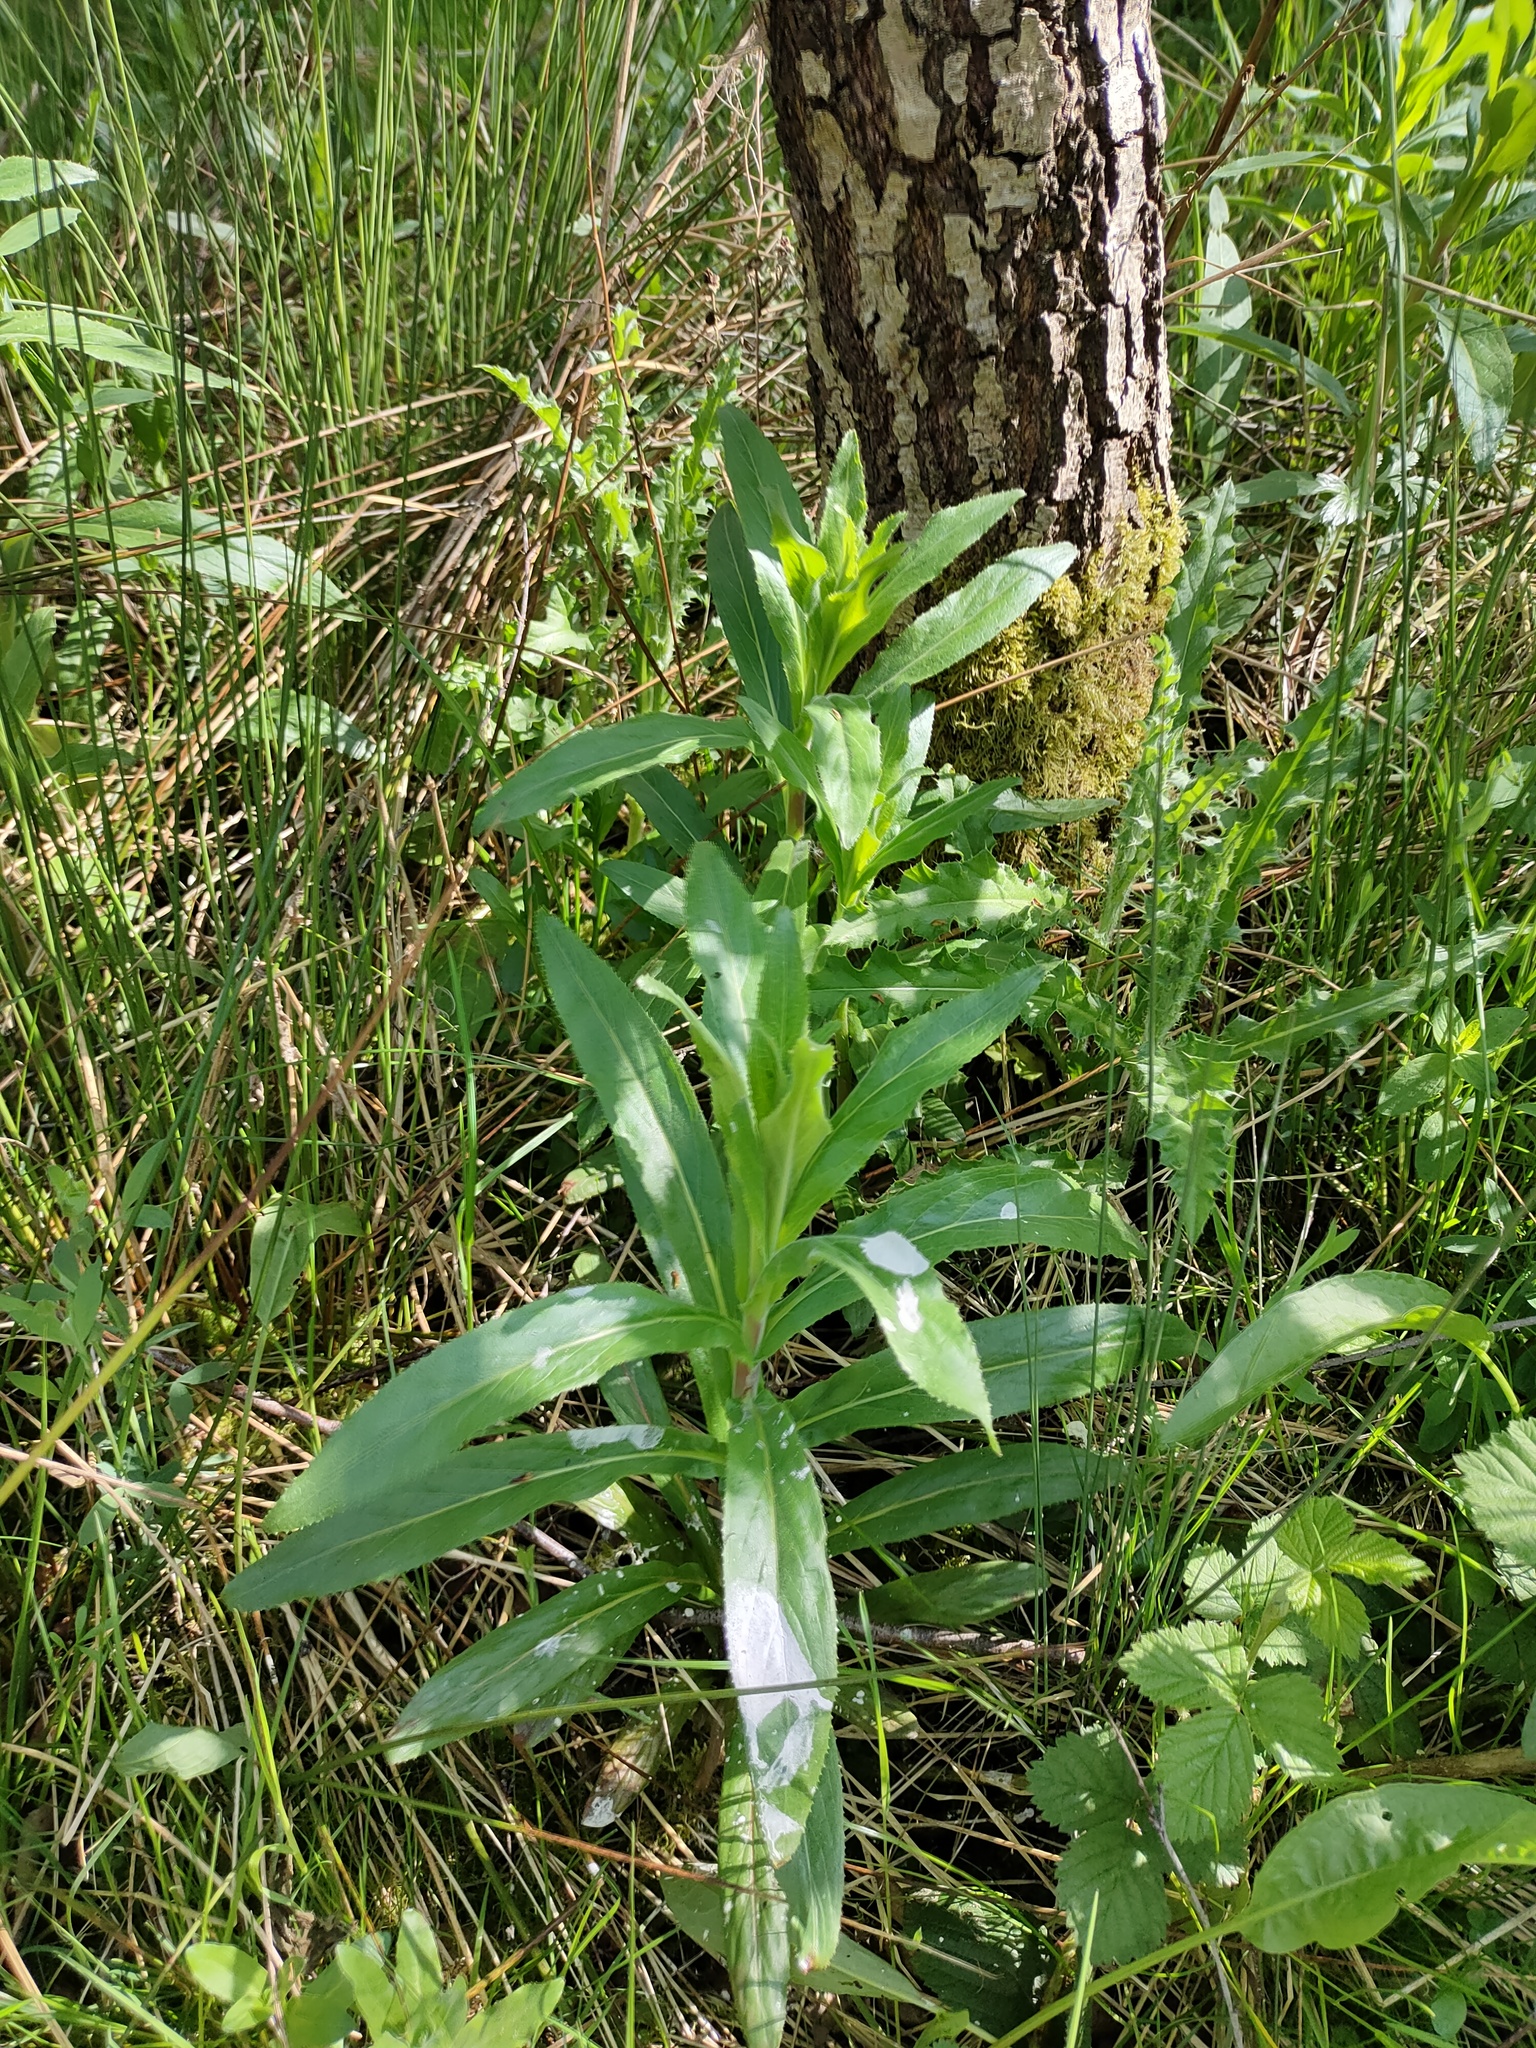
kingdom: Plantae
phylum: Tracheophyta
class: Magnoliopsida
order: Myrtales
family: Onagraceae
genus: Epilobium
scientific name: Epilobium hirsutum
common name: Great willowherb
